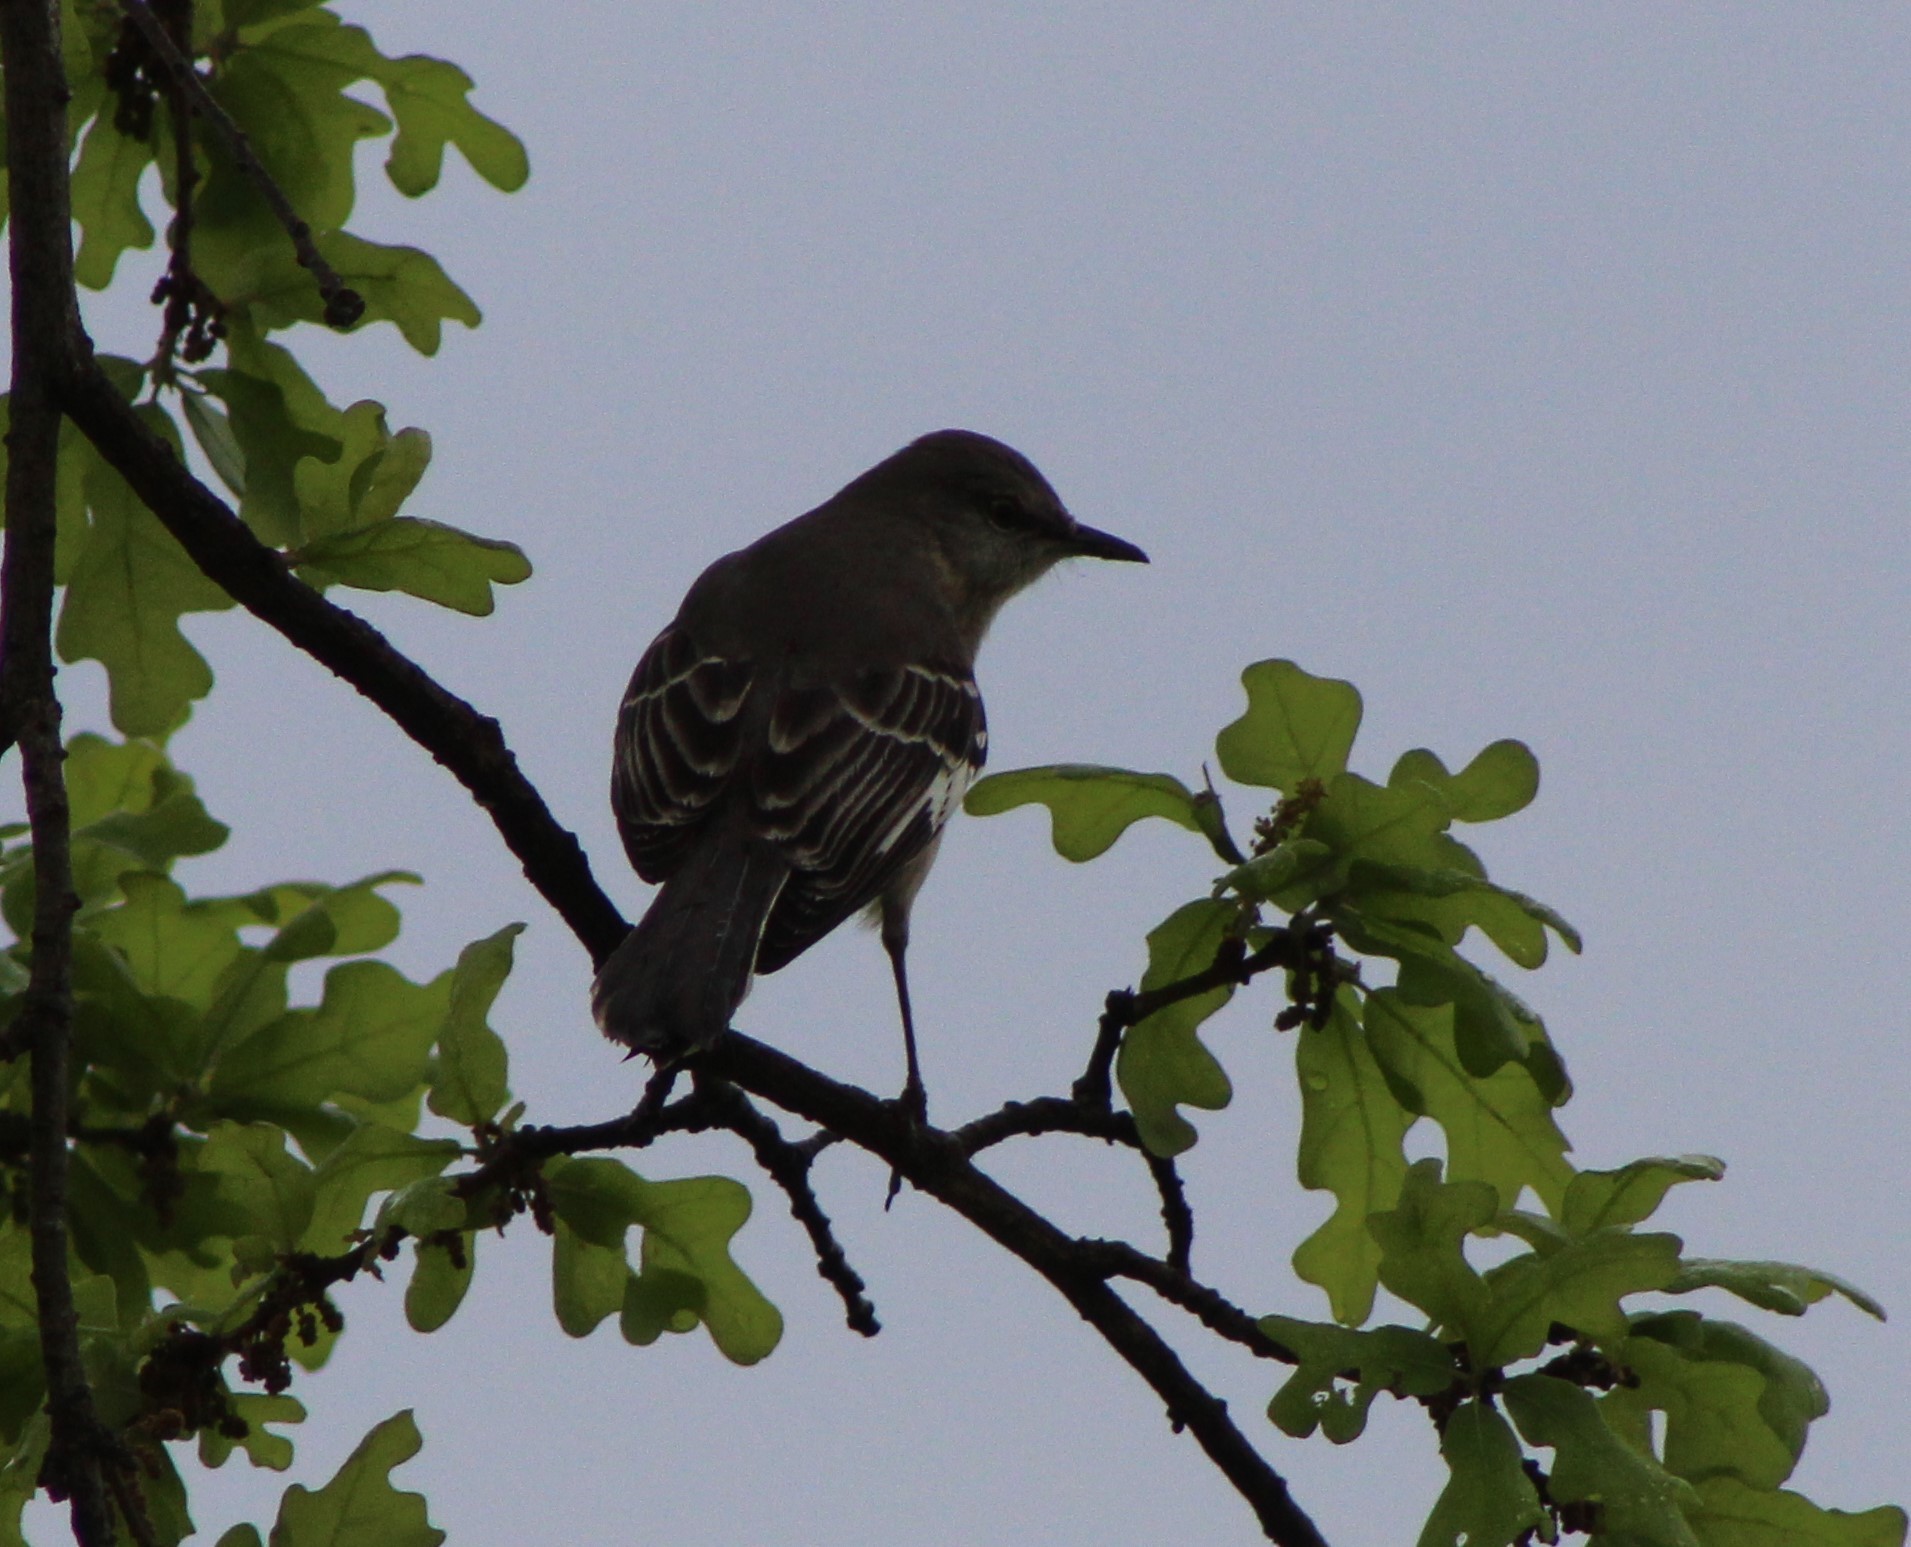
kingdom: Animalia
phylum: Chordata
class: Aves
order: Passeriformes
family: Mimidae
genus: Mimus
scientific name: Mimus polyglottos
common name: Northern mockingbird
